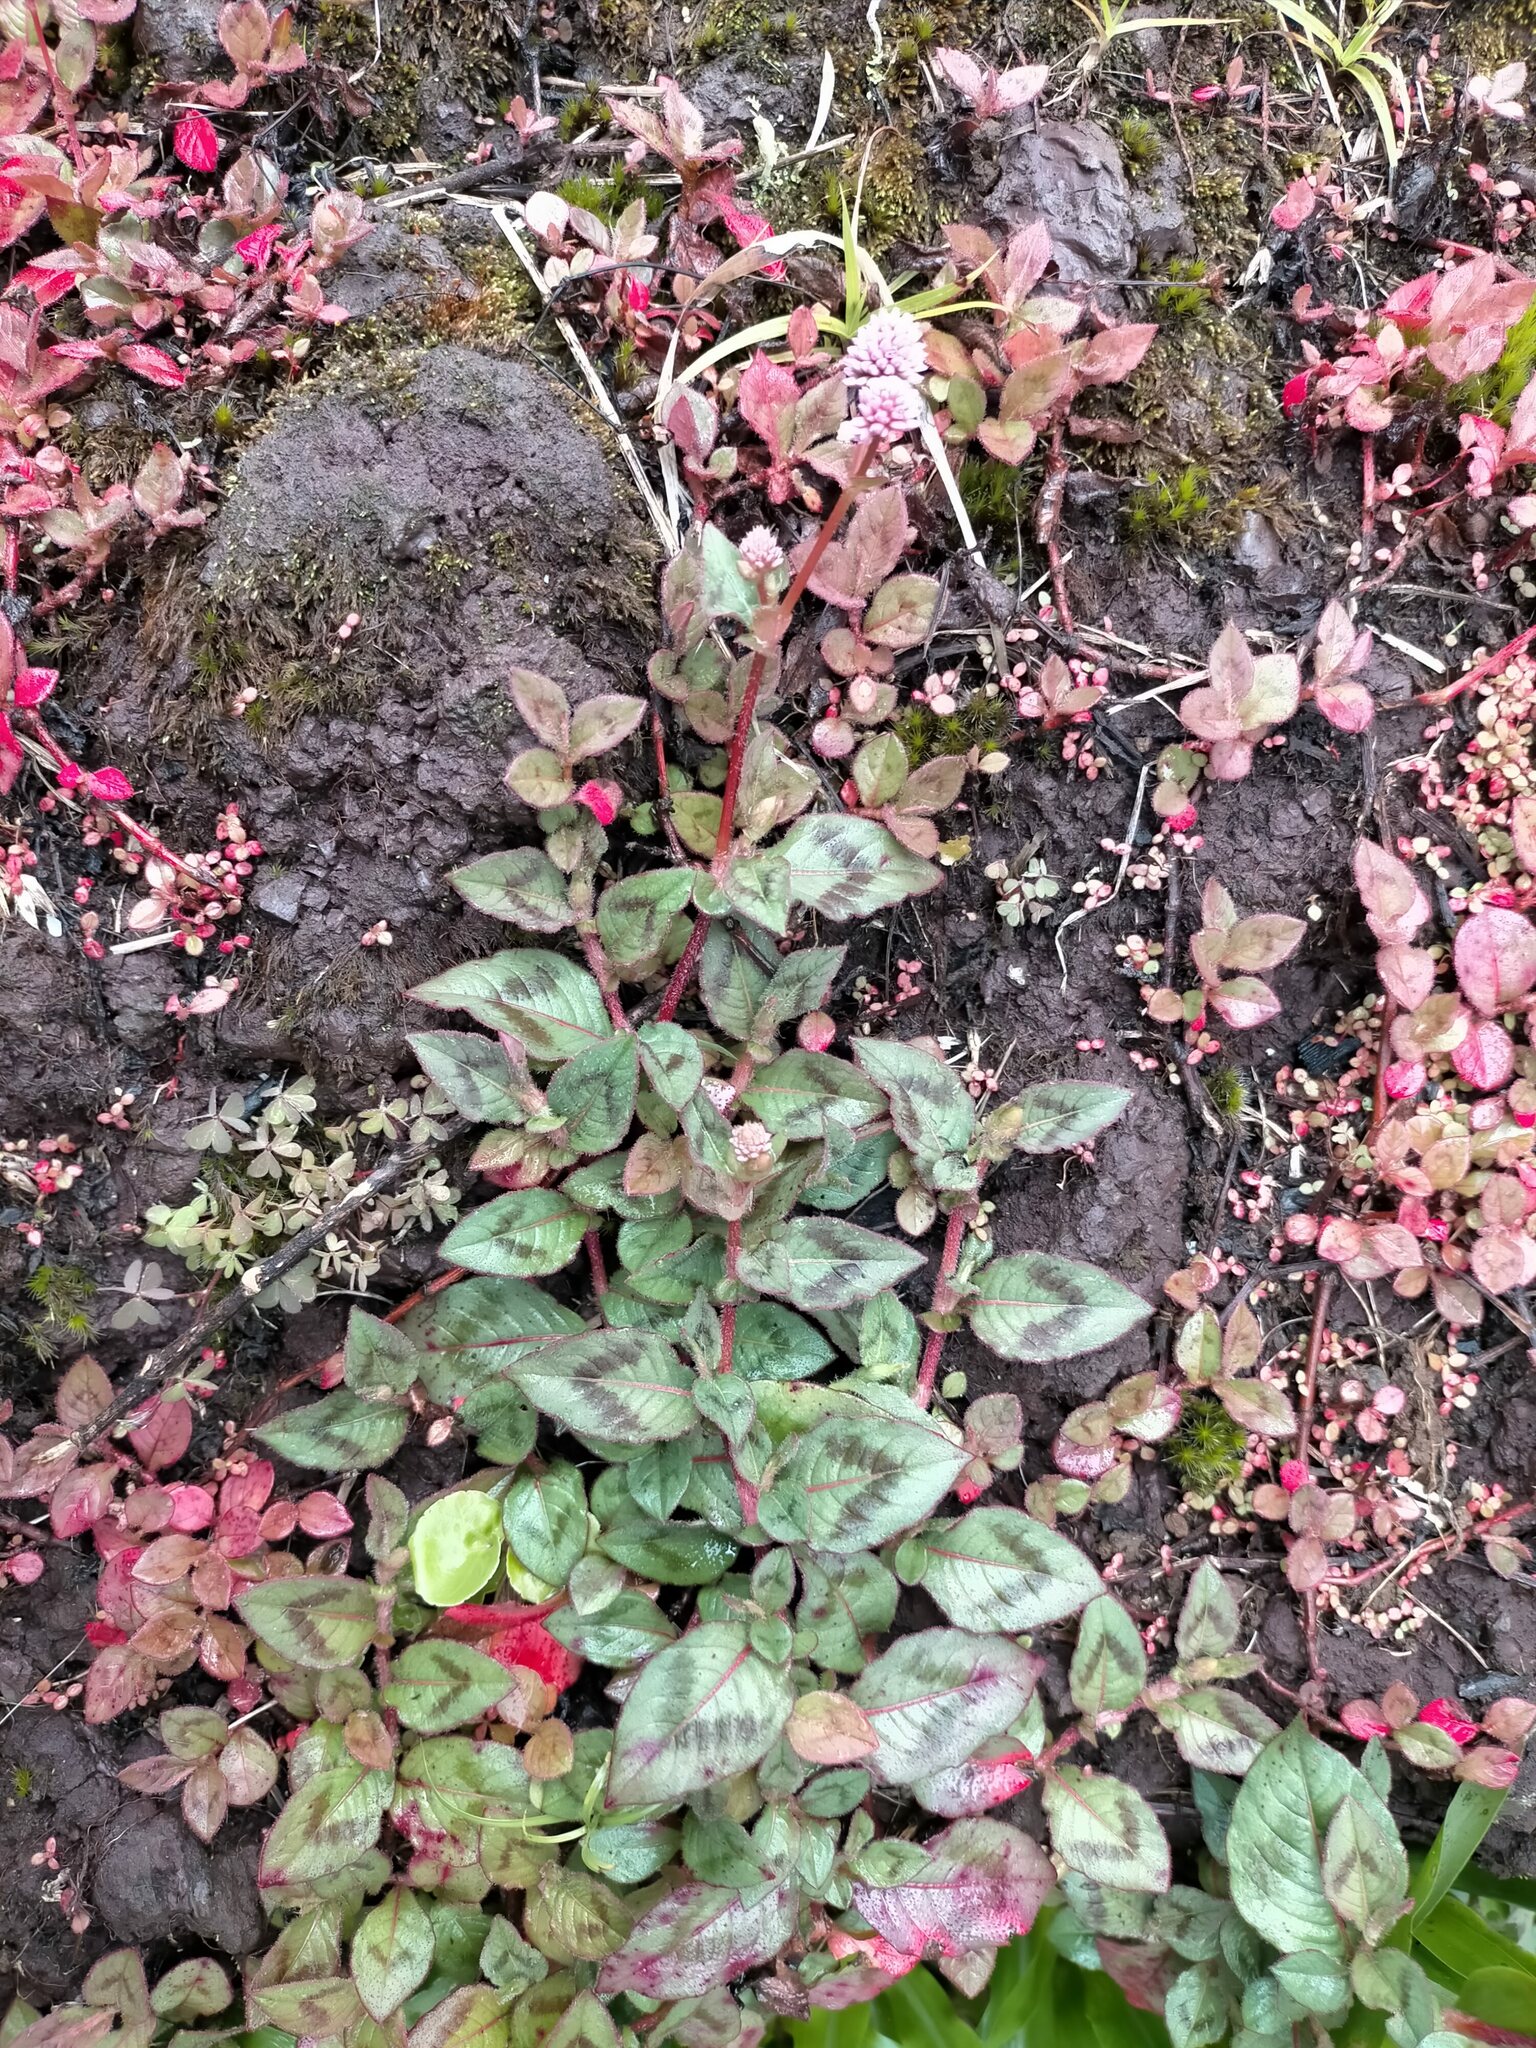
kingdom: Plantae
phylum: Tracheophyta
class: Magnoliopsida
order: Caryophyllales
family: Polygonaceae
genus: Persicaria
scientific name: Persicaria capitata
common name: Pinkhead smartweed
